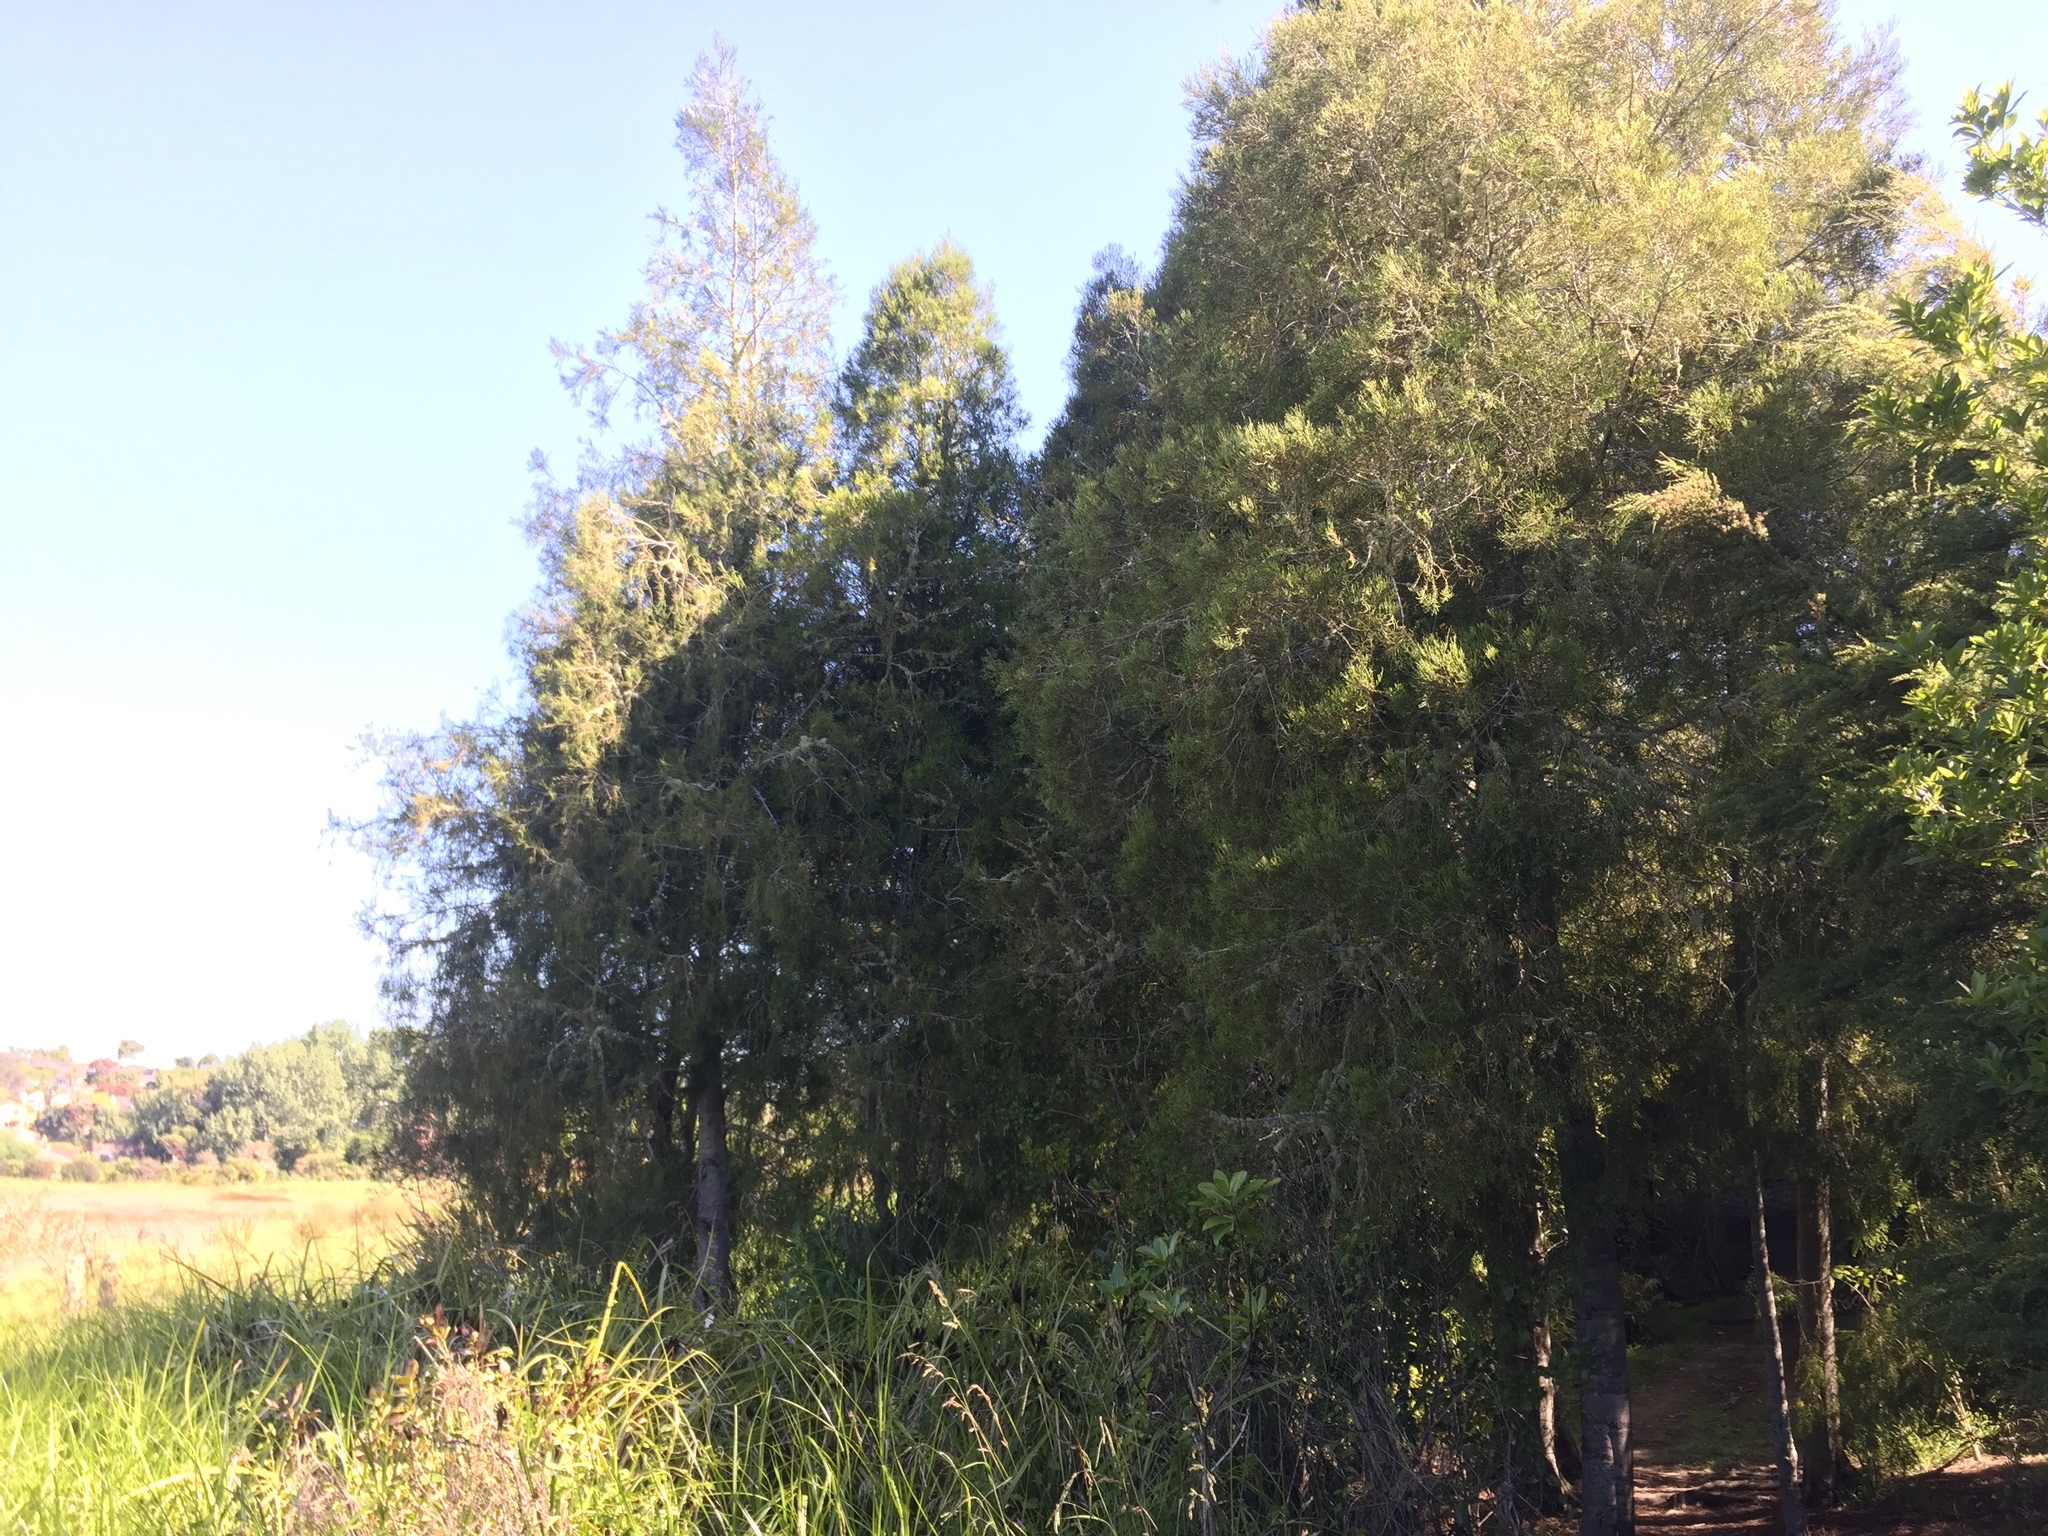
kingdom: Plantae
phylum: Tracheophyta
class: Pinopsida
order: Pinales
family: Podocarpaceae
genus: Dacrycarpus
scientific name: Dacrycarpus dacrydioides
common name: White pine
